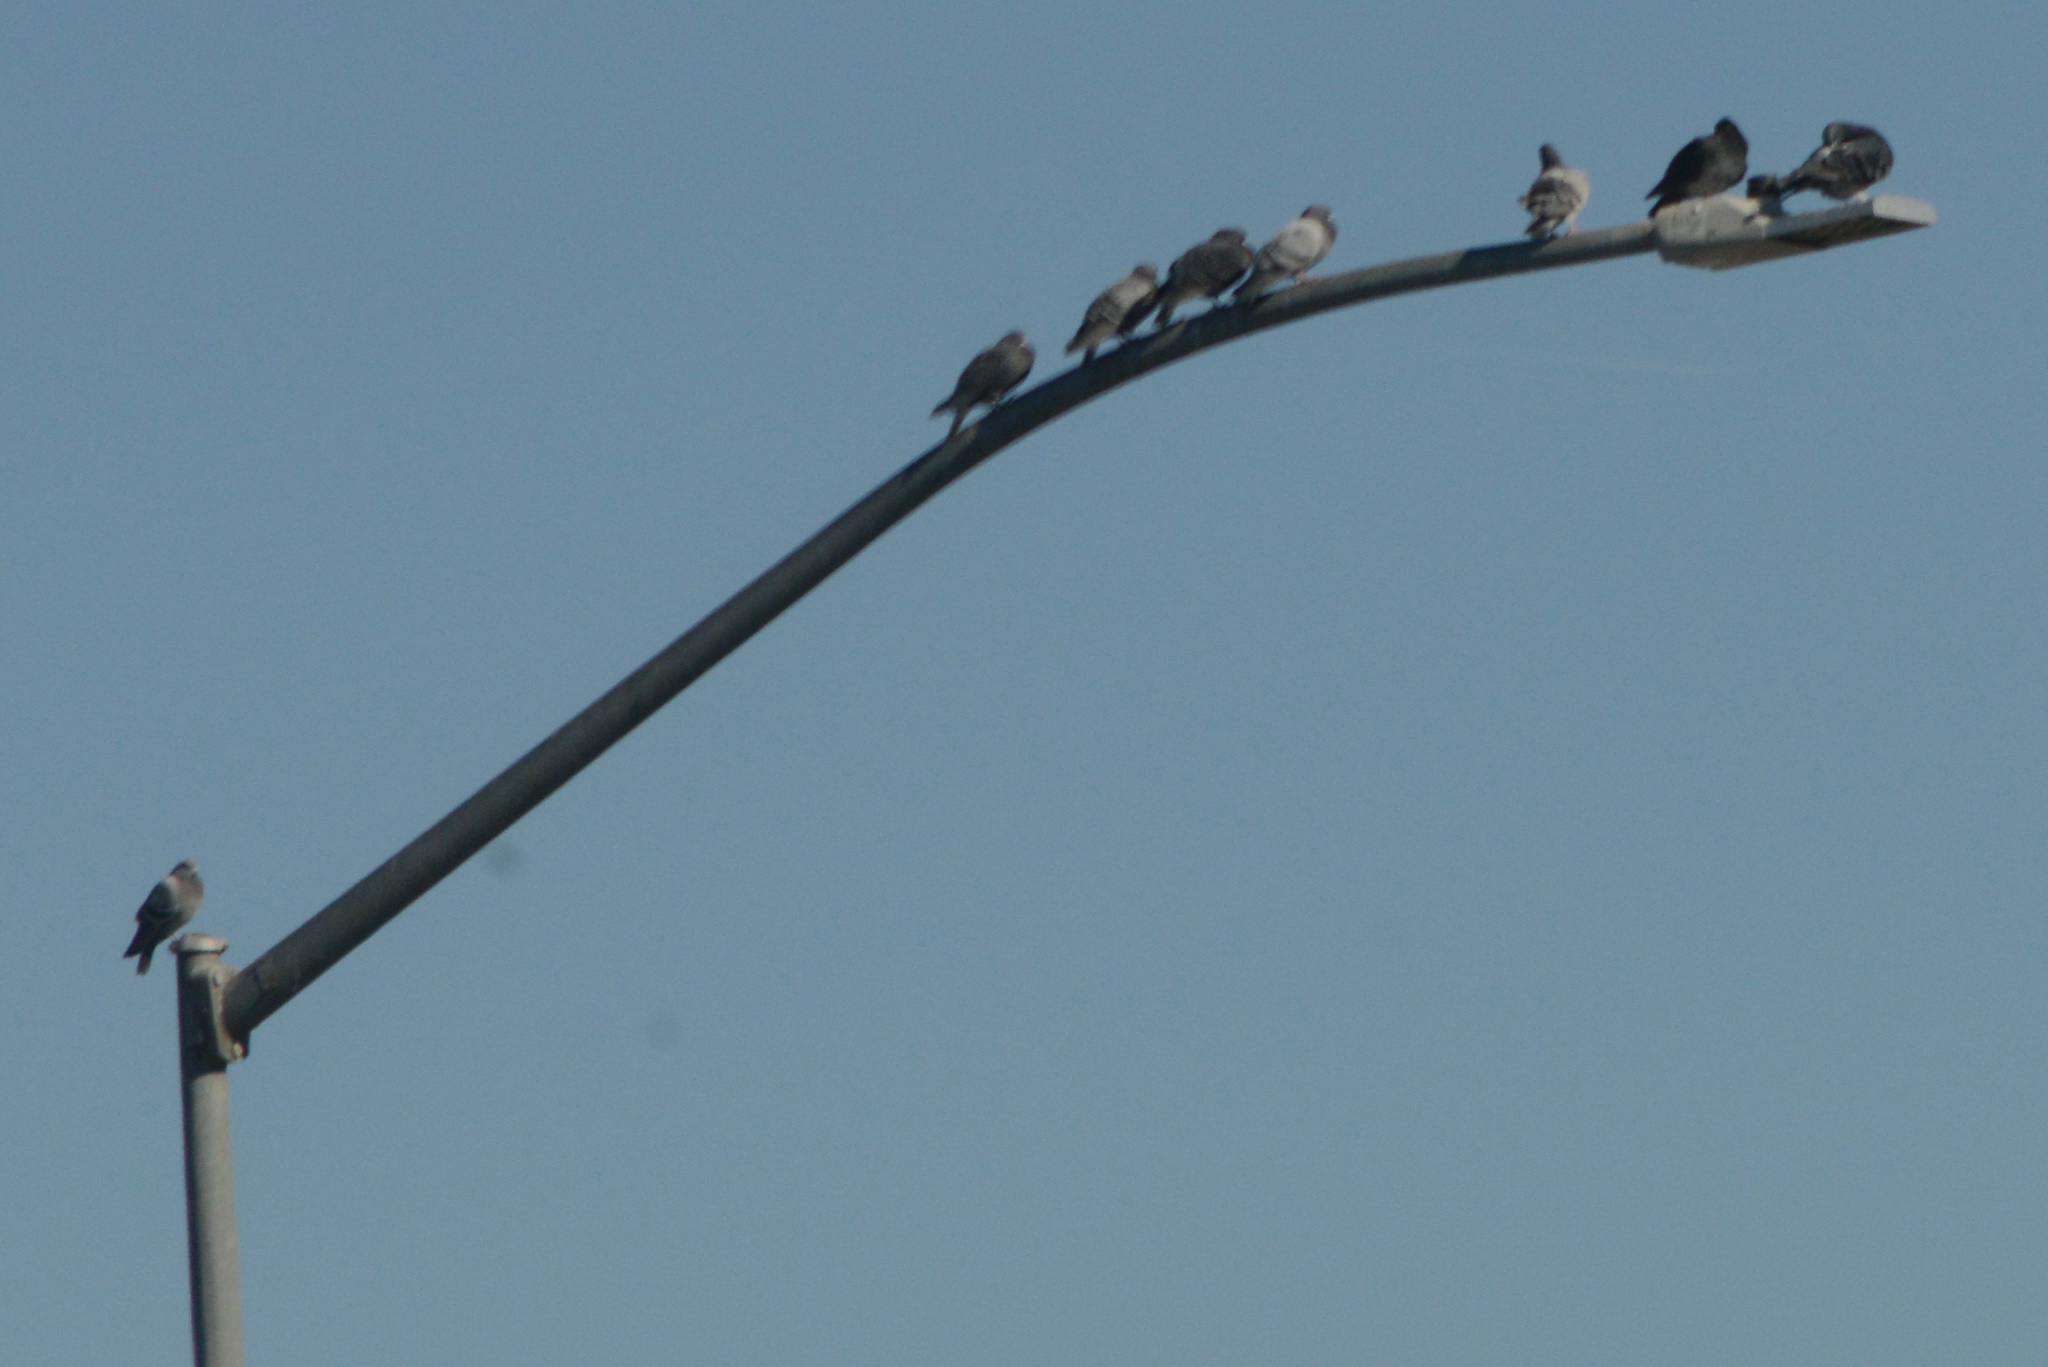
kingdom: Animalia
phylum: Chordata
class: Aves
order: Columbiformes
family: Columbidae
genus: Columba
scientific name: Columba livia
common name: Rock pigeon
